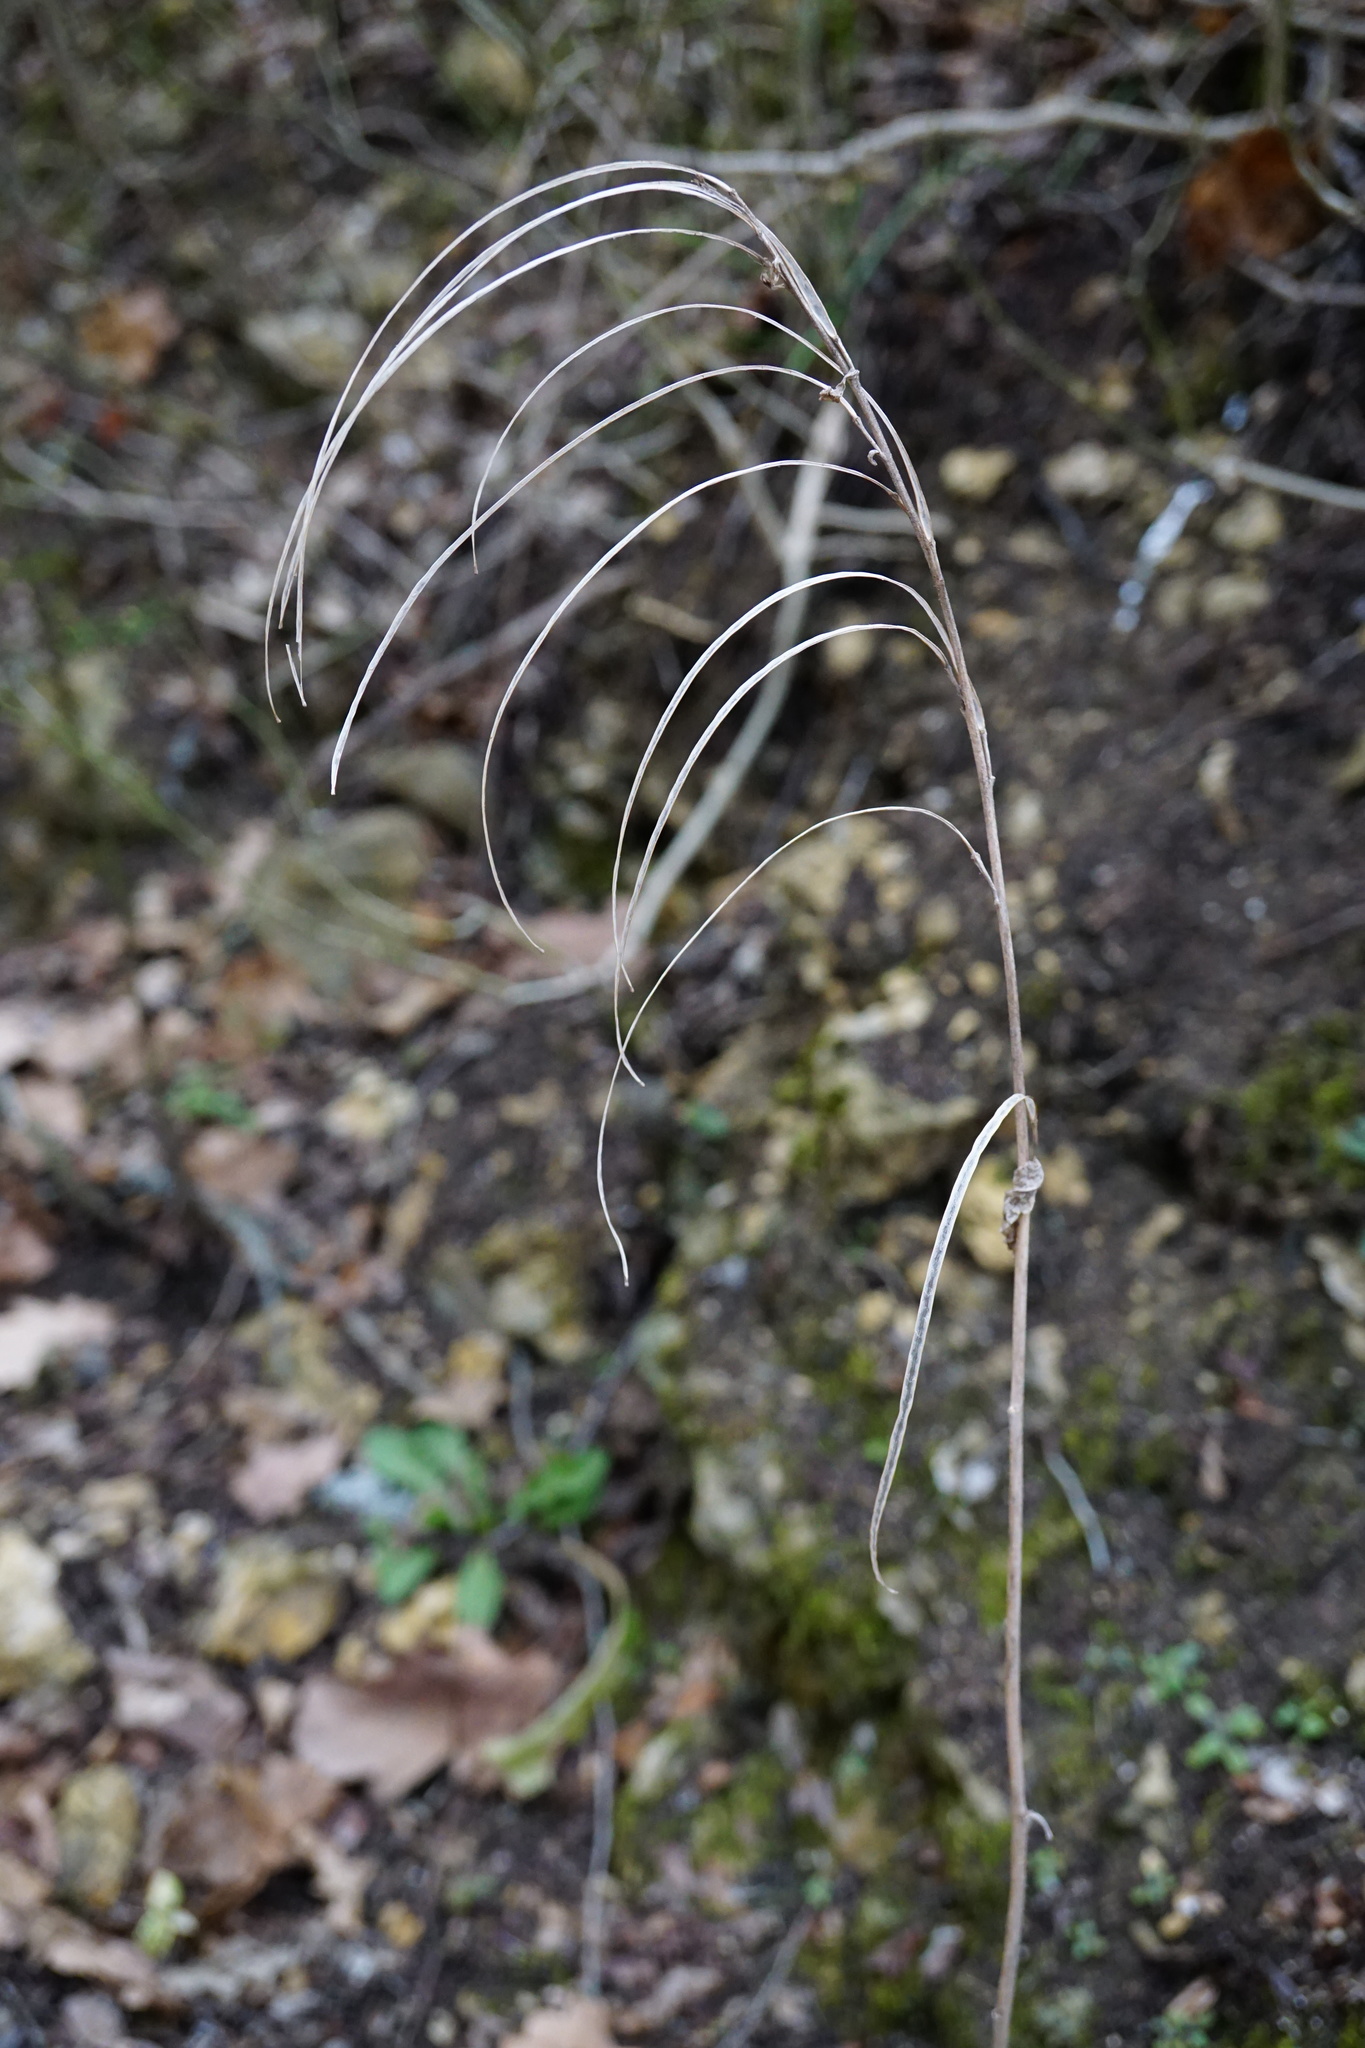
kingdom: Plantae
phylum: Tracheophyta
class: Magnoliopsida
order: Brassicales
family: Brassicaceae
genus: Pseudoturritis
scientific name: Pseudoturritis turrita
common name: Tower cress
